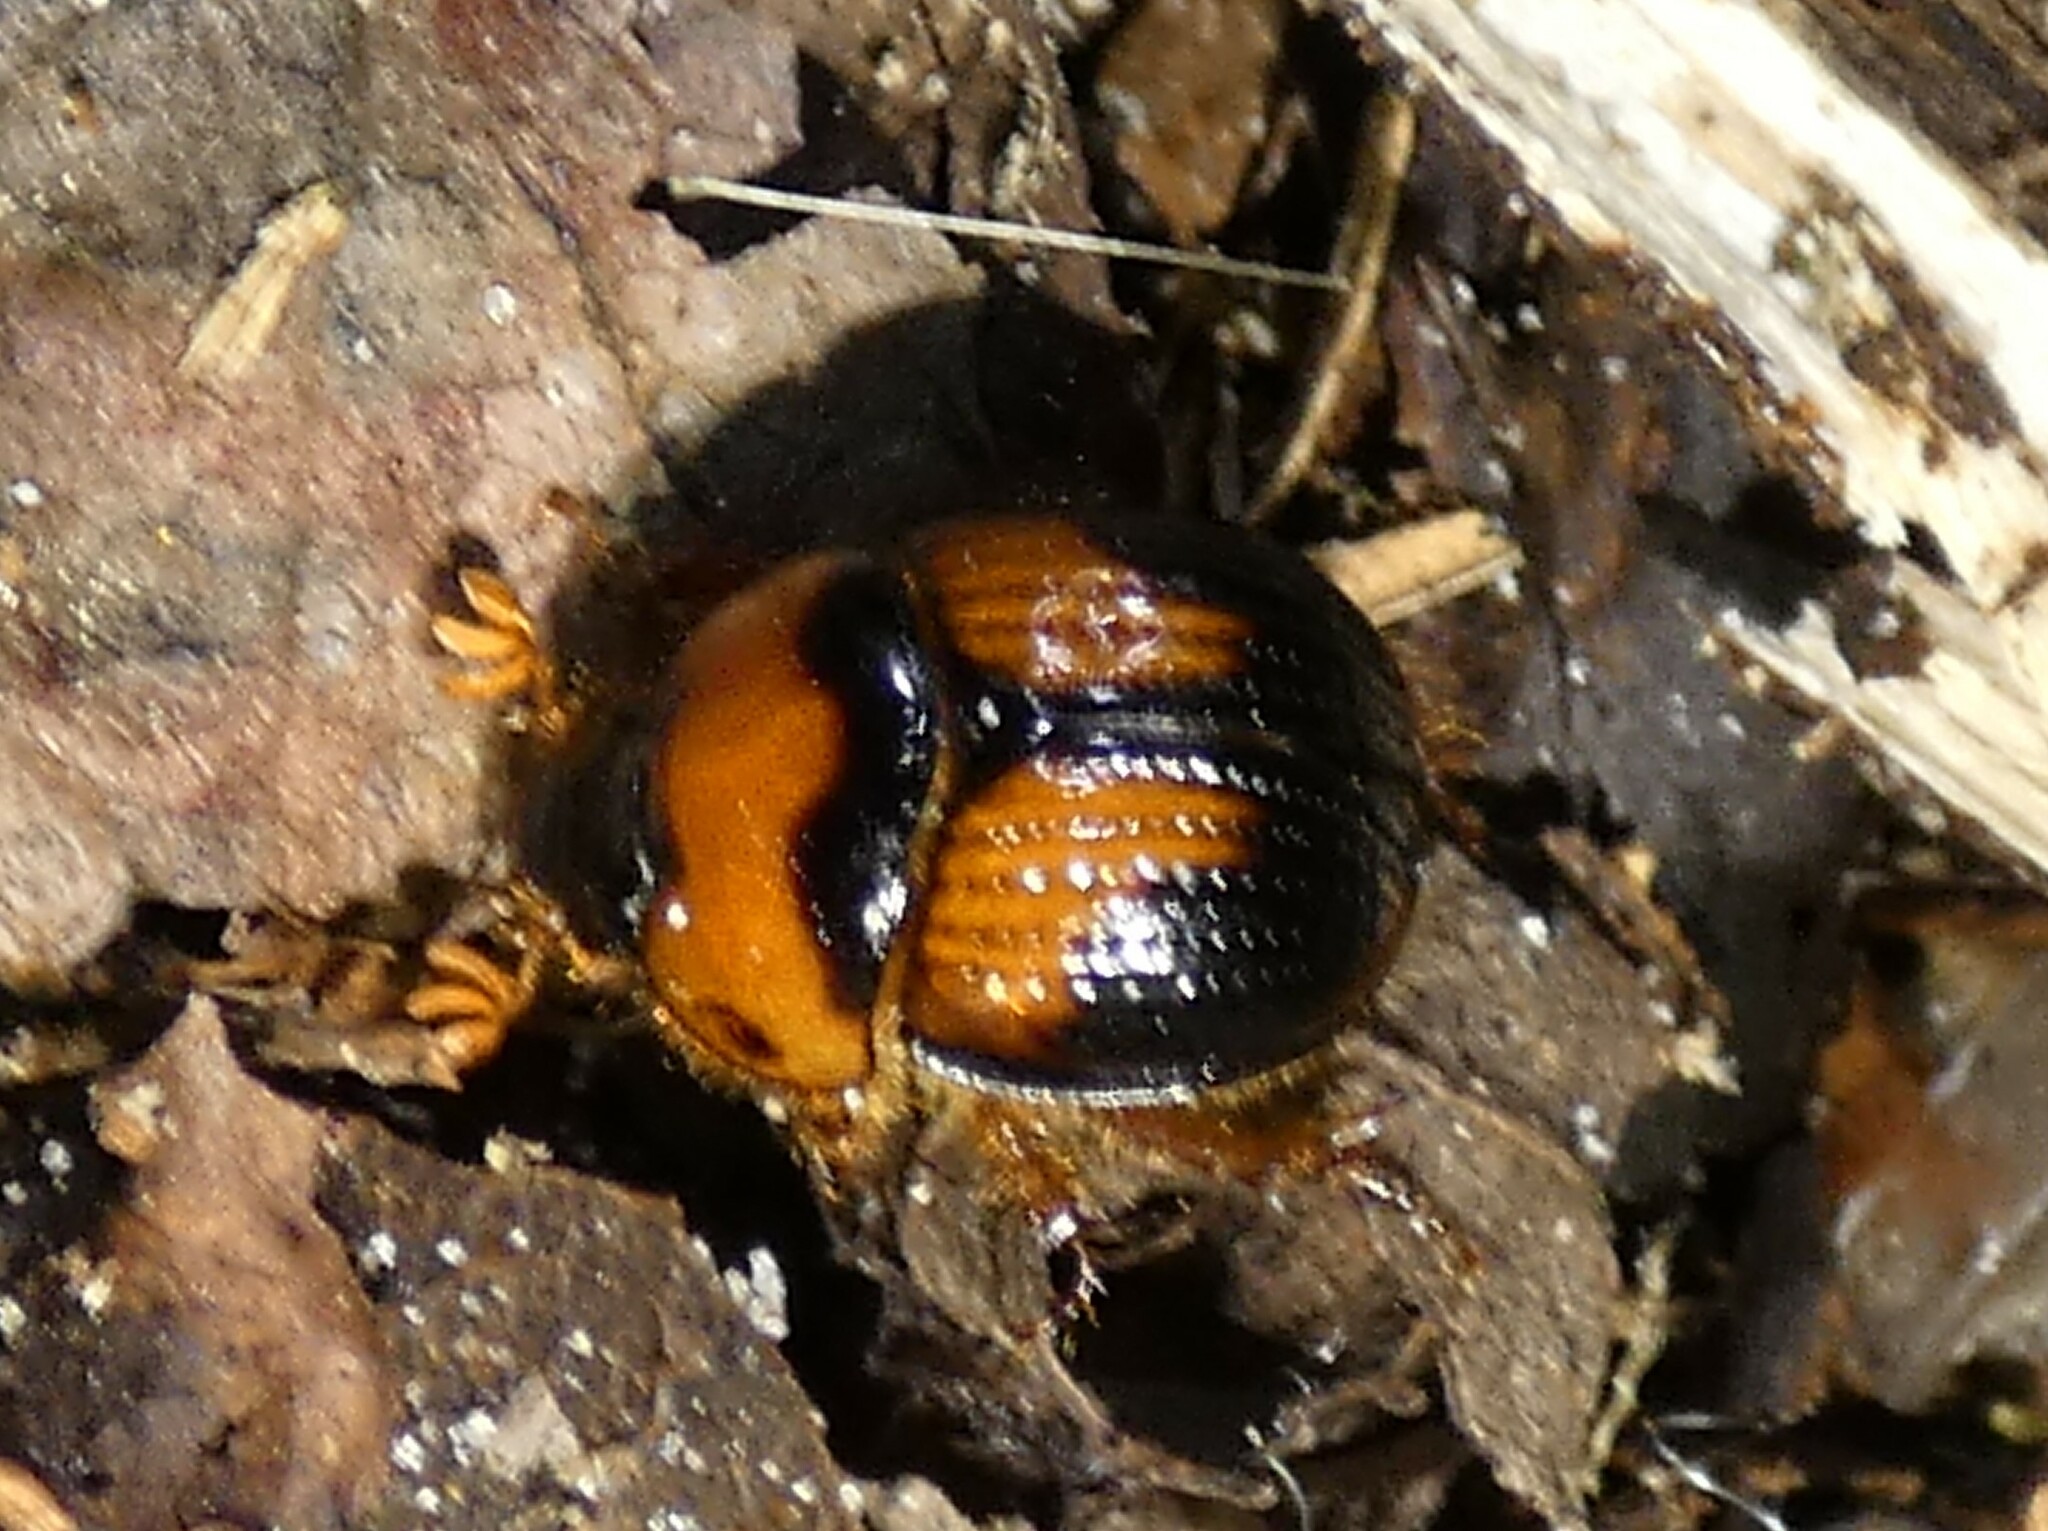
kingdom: Animalia
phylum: Arthropoda
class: Insecta
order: Coleoptera
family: Geotrupidae
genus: Bolbocerosoma
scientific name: Bolbocerosoma hamatum
